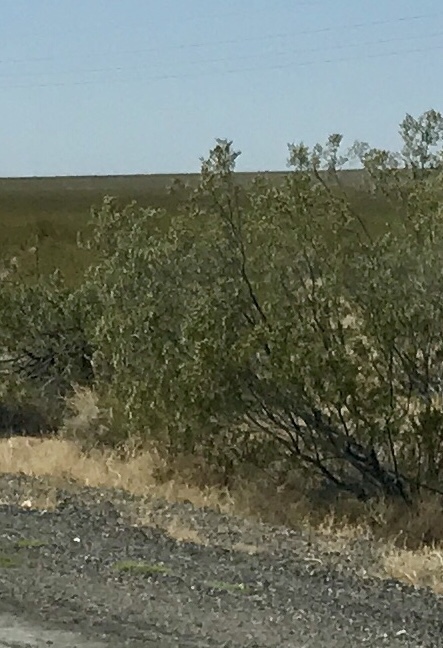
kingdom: Plantae
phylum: Tracheophyta
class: Magnoliopsida
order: Zygophyllales
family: Zygophyllaceae
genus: Larrea
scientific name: Larrea tridentata
